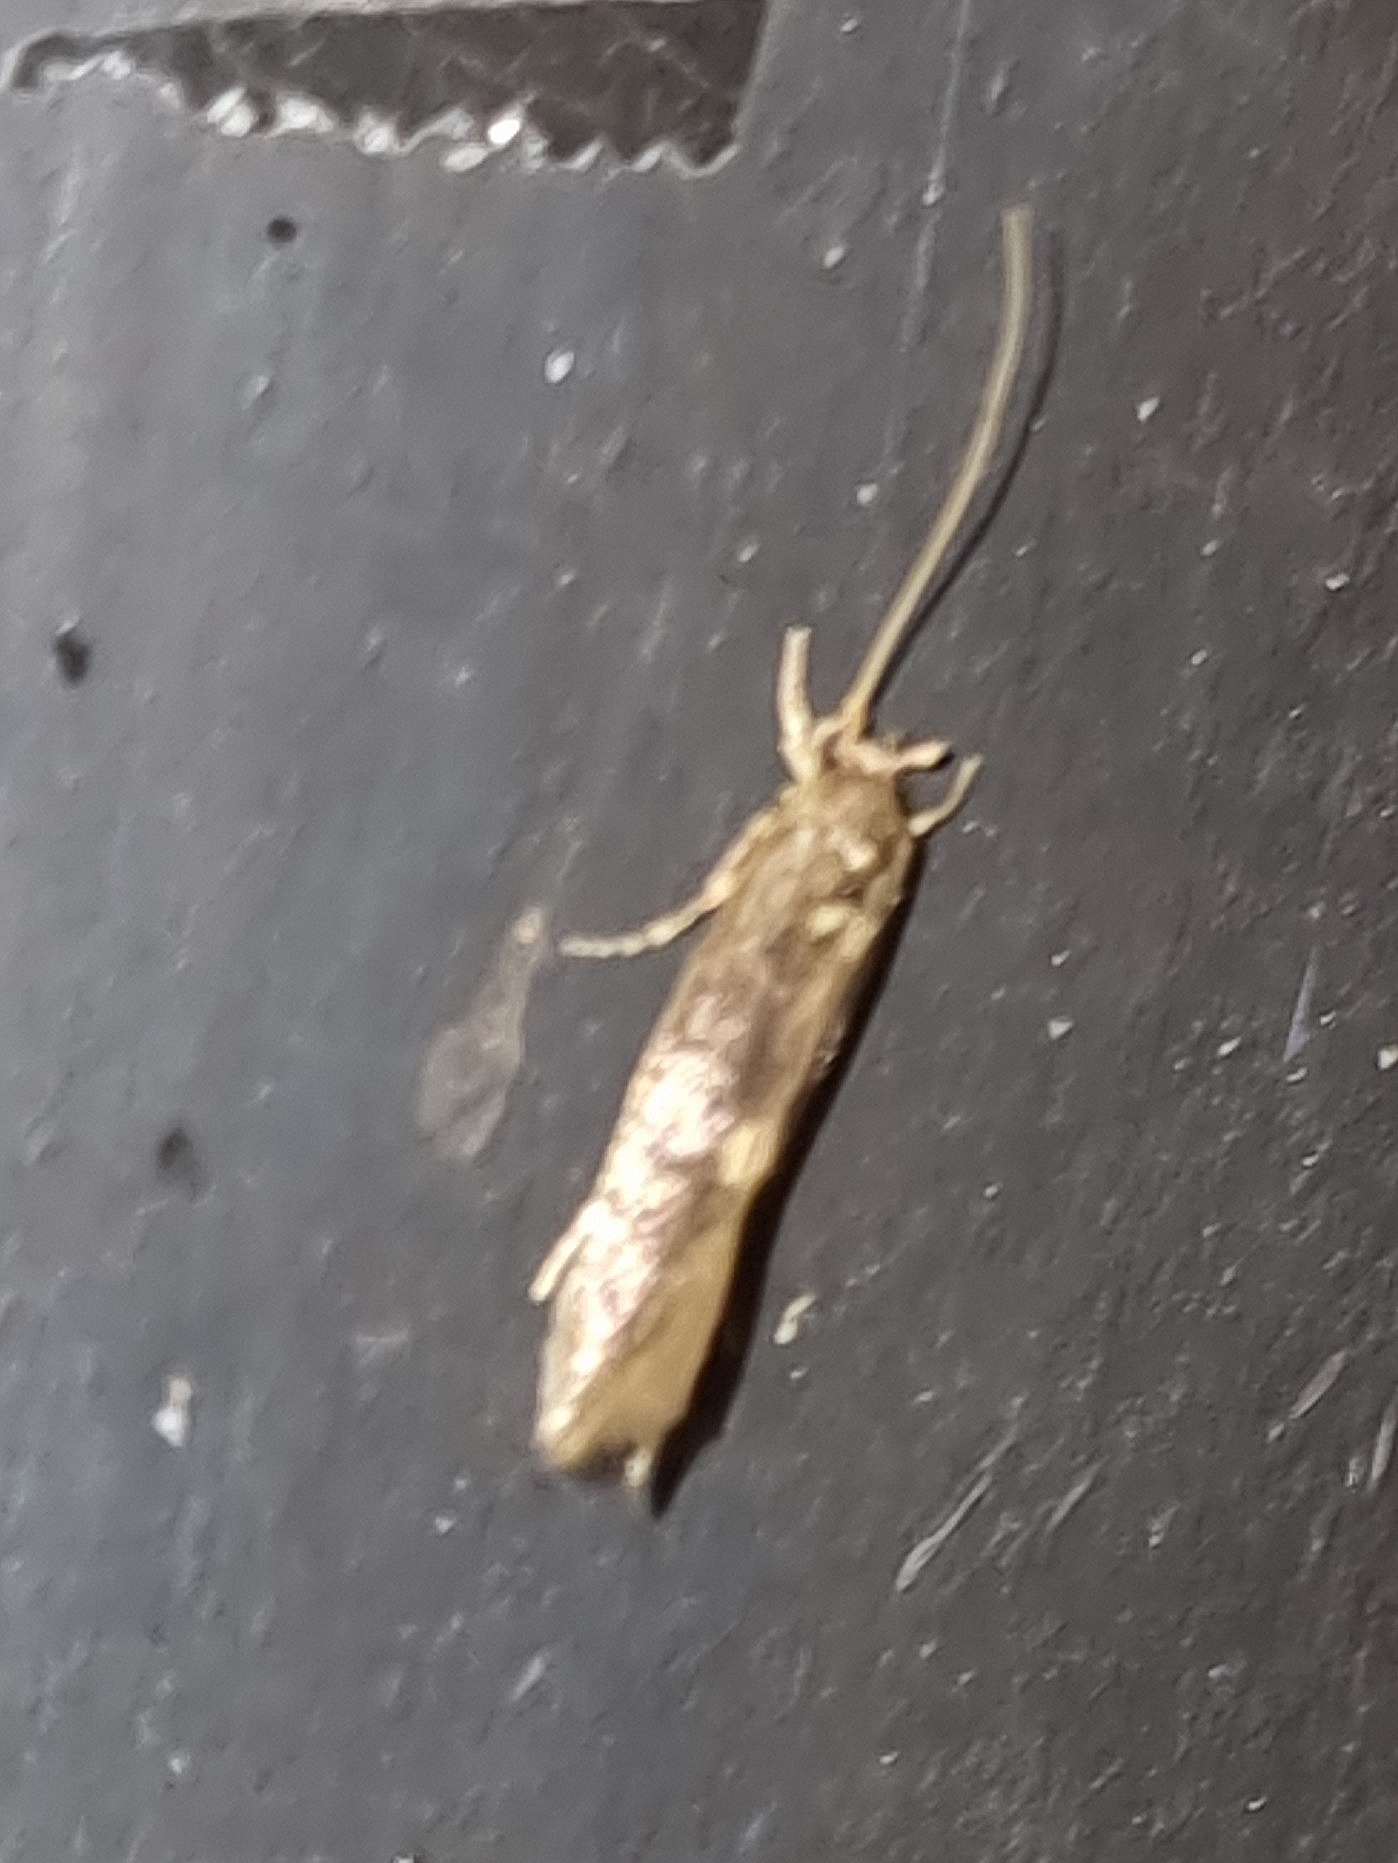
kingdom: Animalia
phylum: Arthropoda
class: Insecta
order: Lepidoptera
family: Tineidae
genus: Opogona
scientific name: Opogona omoscopa
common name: Moth
